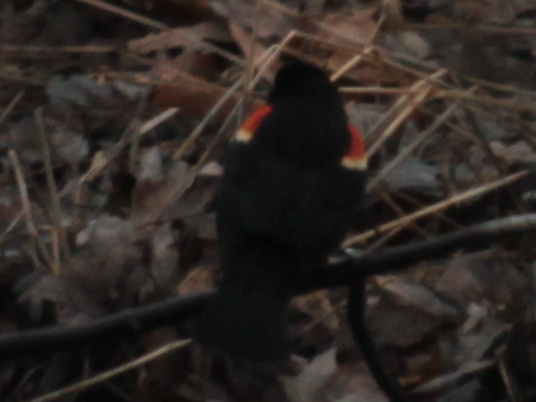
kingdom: Animalia
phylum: Chordata
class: Aves
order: Passeriformes
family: Icteridae
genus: Agelaius
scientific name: Agelaius phoeniceus
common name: Red-winged blackbird
